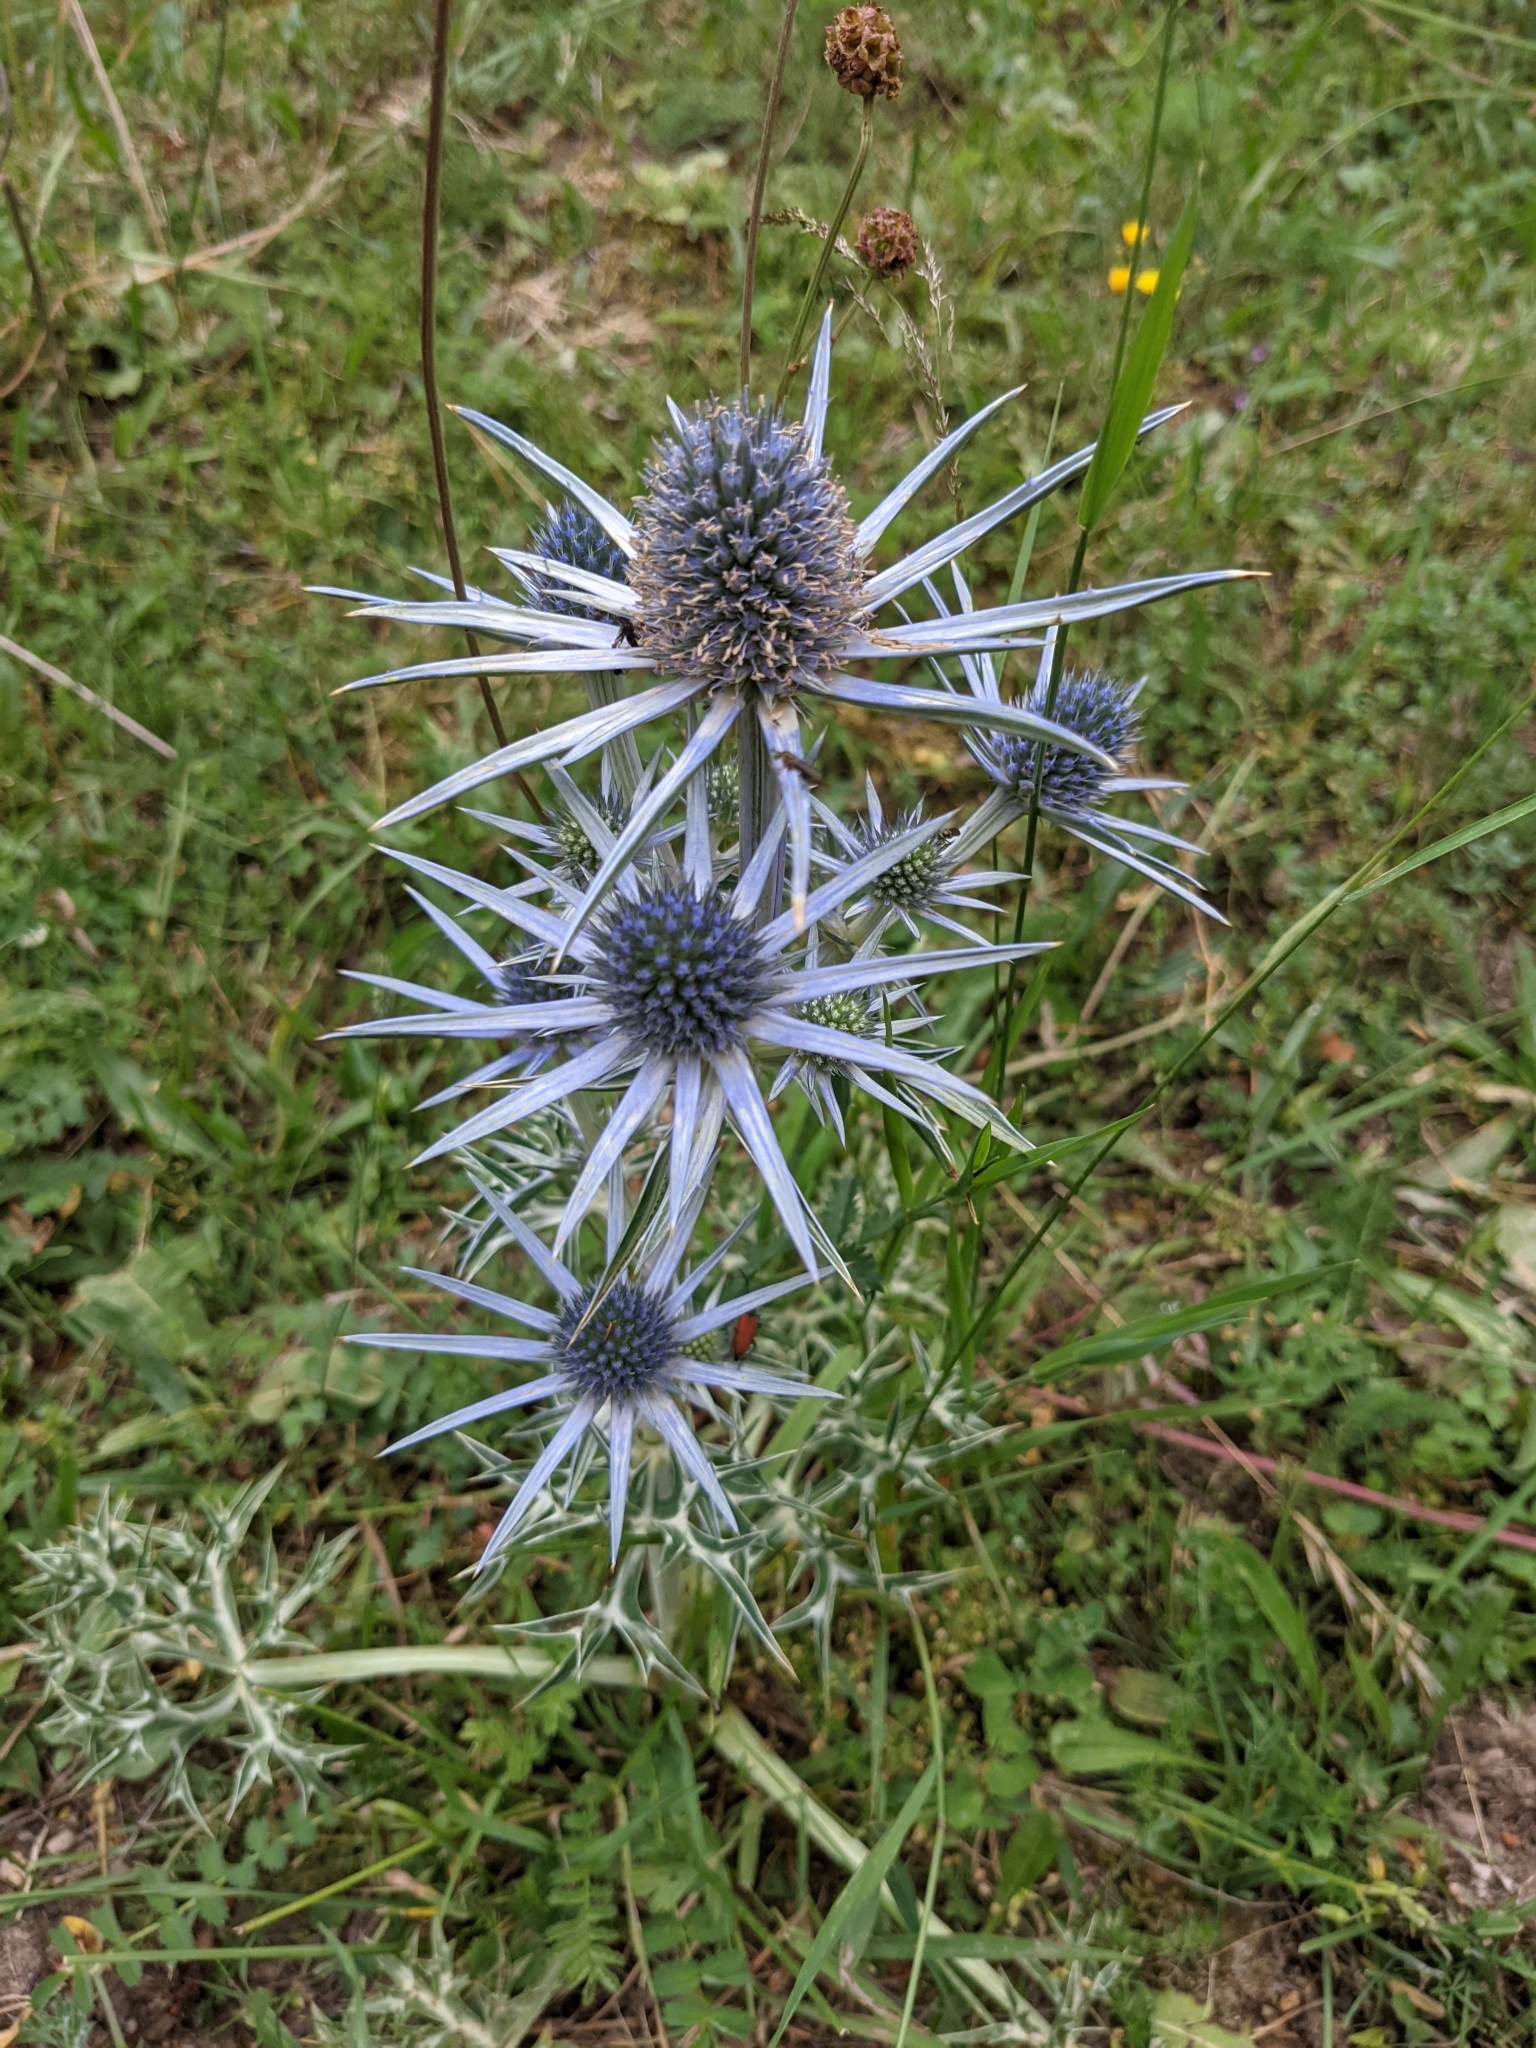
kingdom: Plantae
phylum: Tracheophyta
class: Magnoliopsida
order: Apiales
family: Apiaceae
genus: Eryngium
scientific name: Eryngium bourgatii
